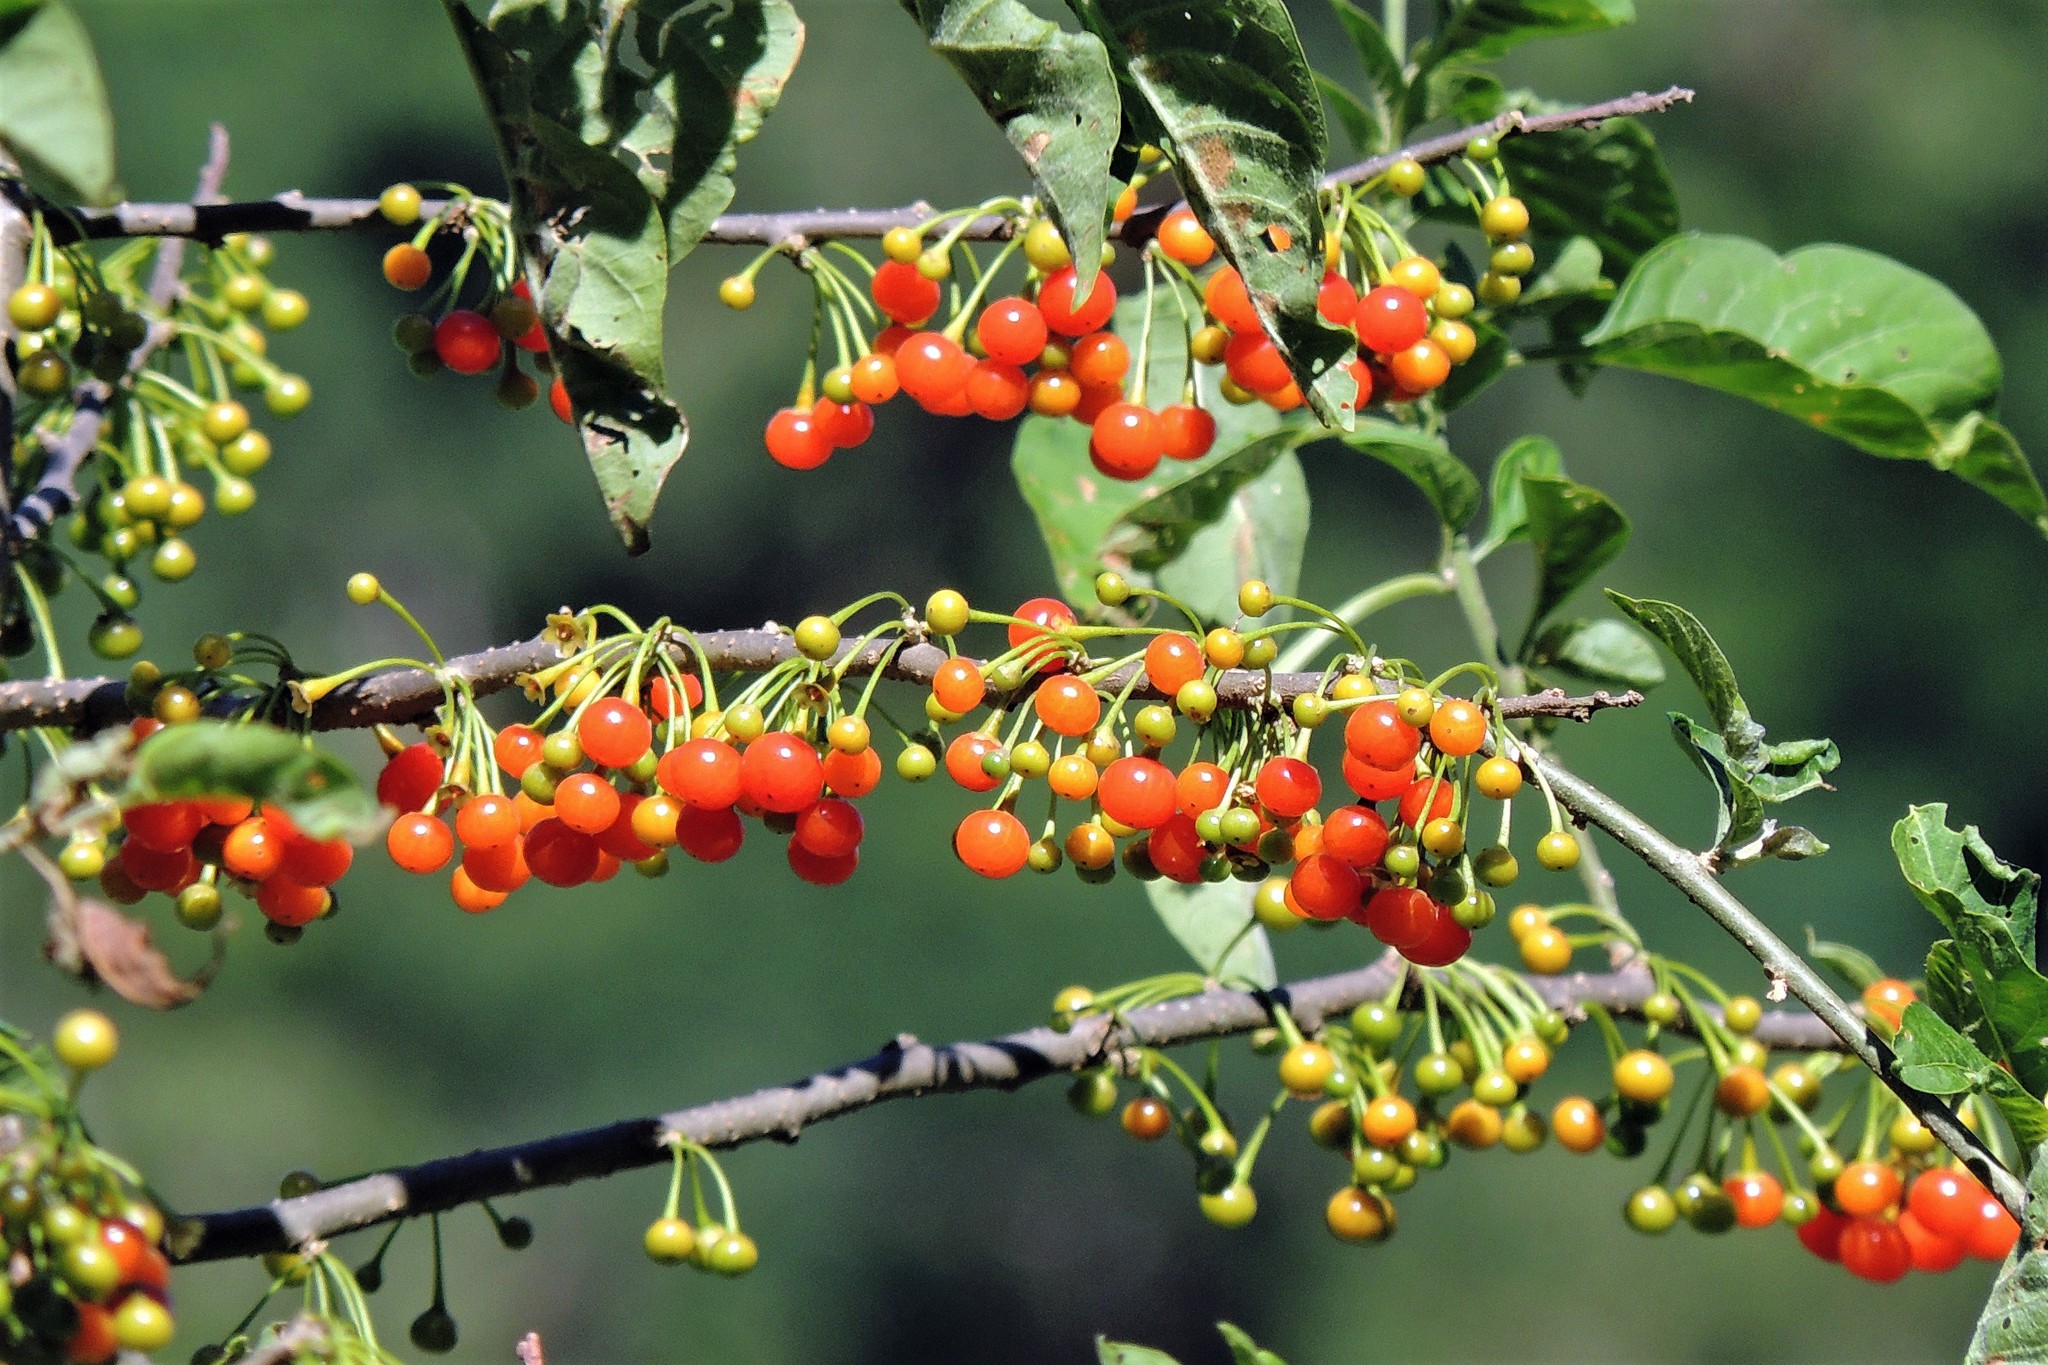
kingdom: Plantae
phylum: Tracheophyta
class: Magnoliopsida
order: Solanales
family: Solanaceae
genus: Vassobia
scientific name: Vassobia breviflora
